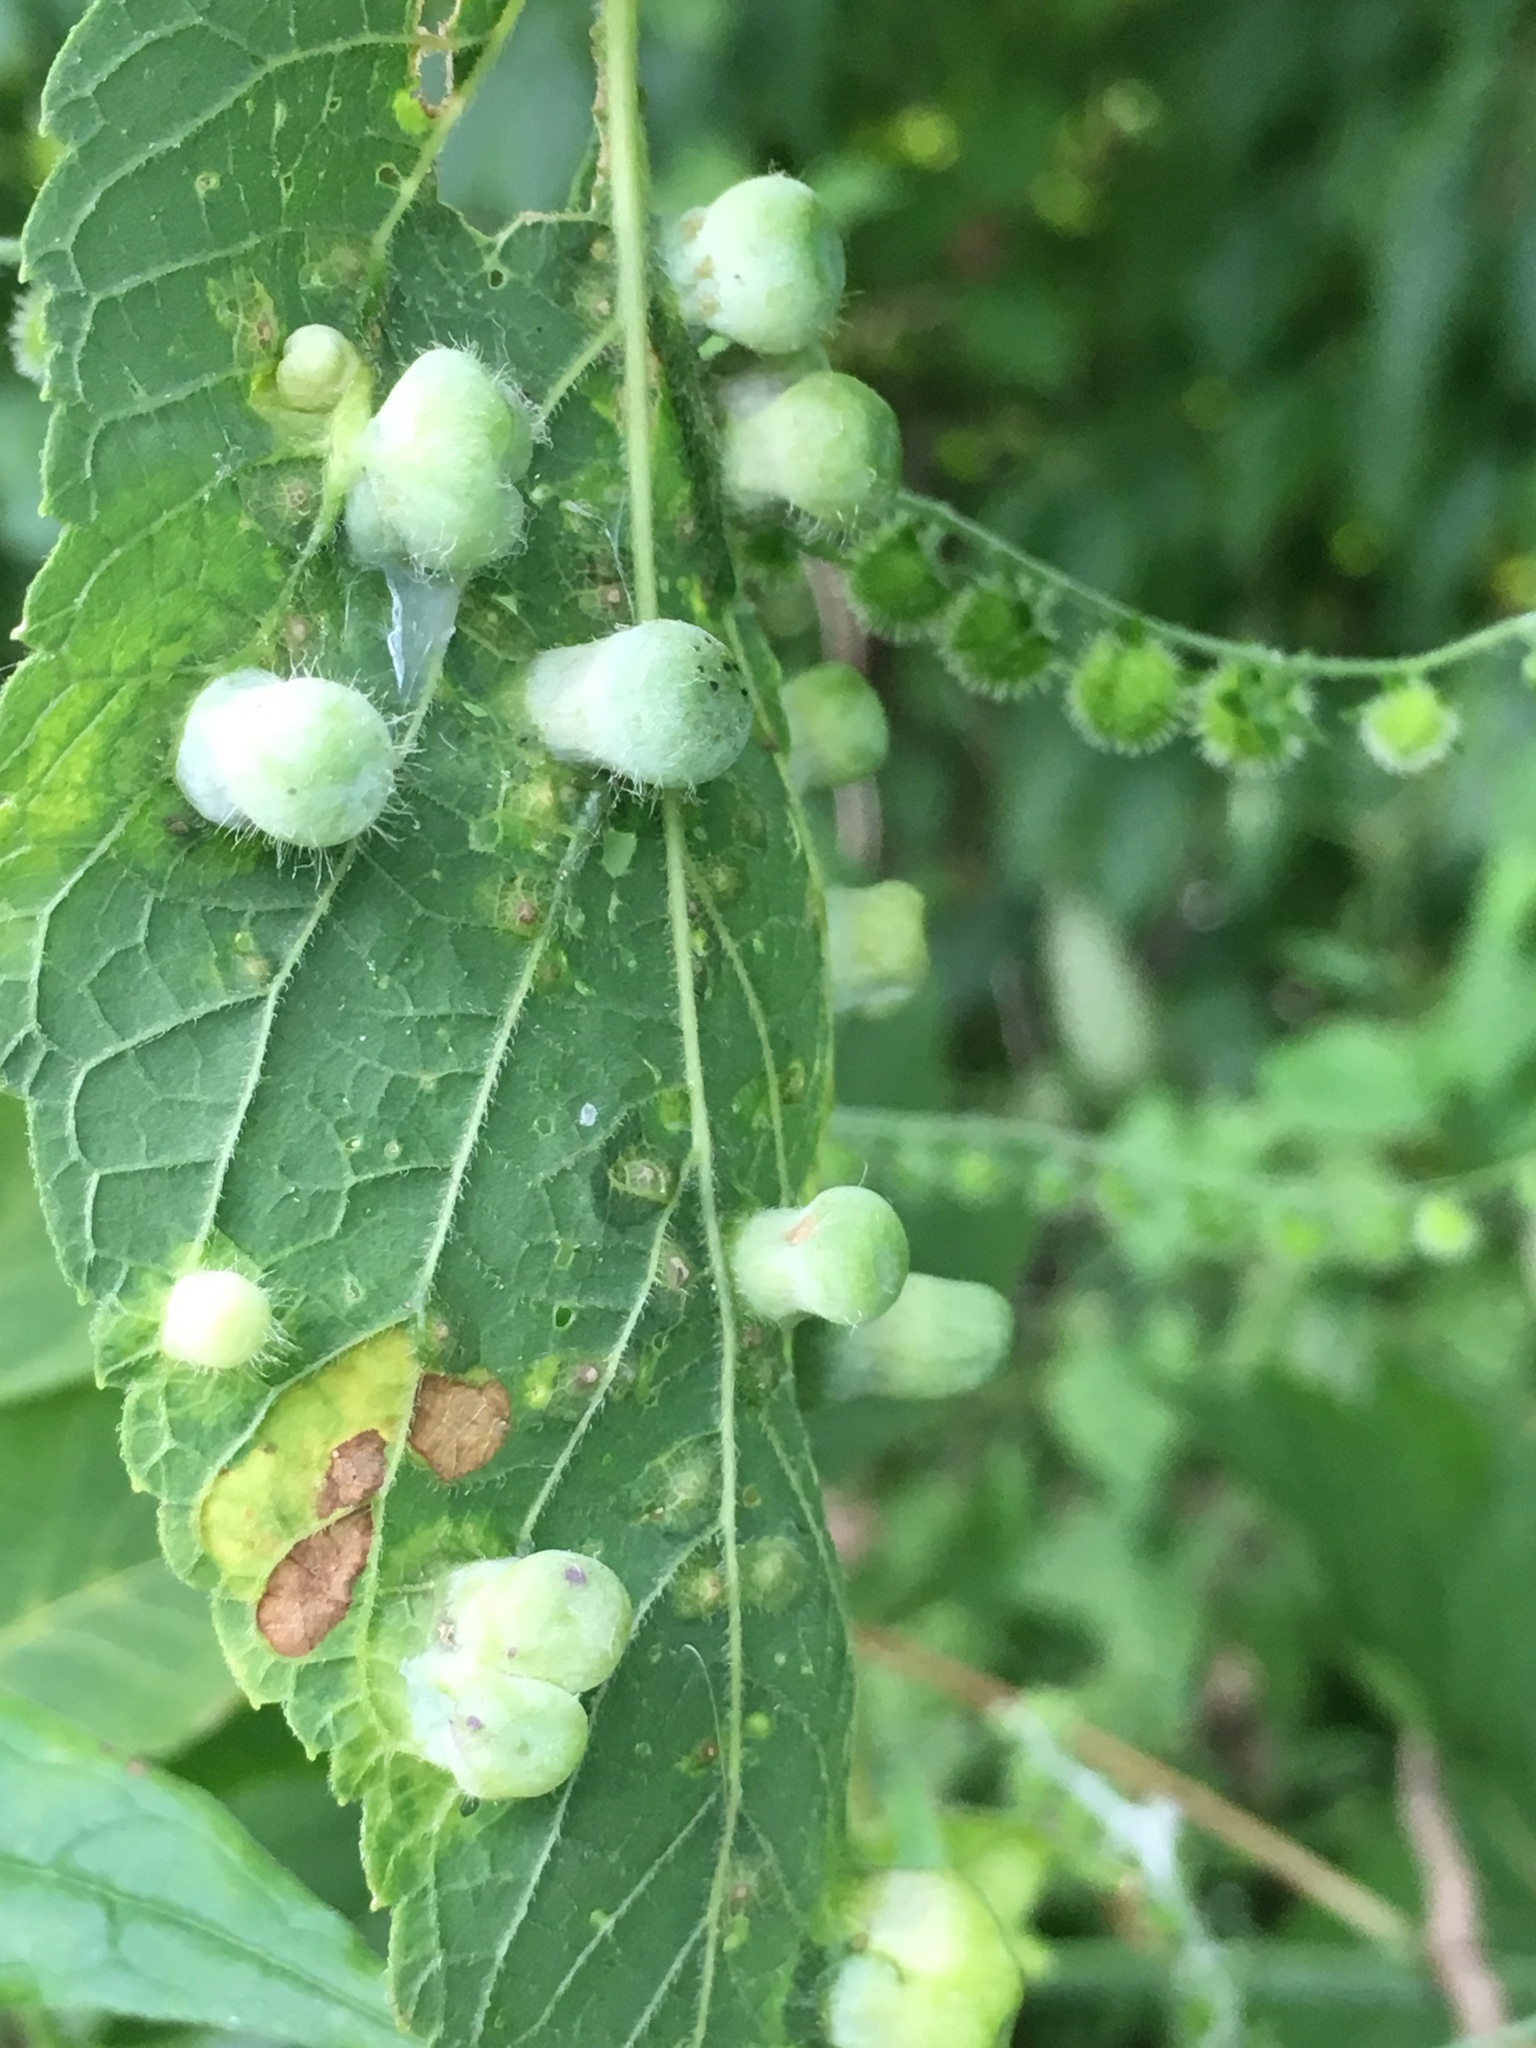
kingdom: Animalia
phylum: Arthropoda
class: Insecta
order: Hemiptera
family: Aphalaridae
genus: Pachypsylla
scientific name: Pachypsylla celtidismamma
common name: Hackberry nipplegall psyllid
